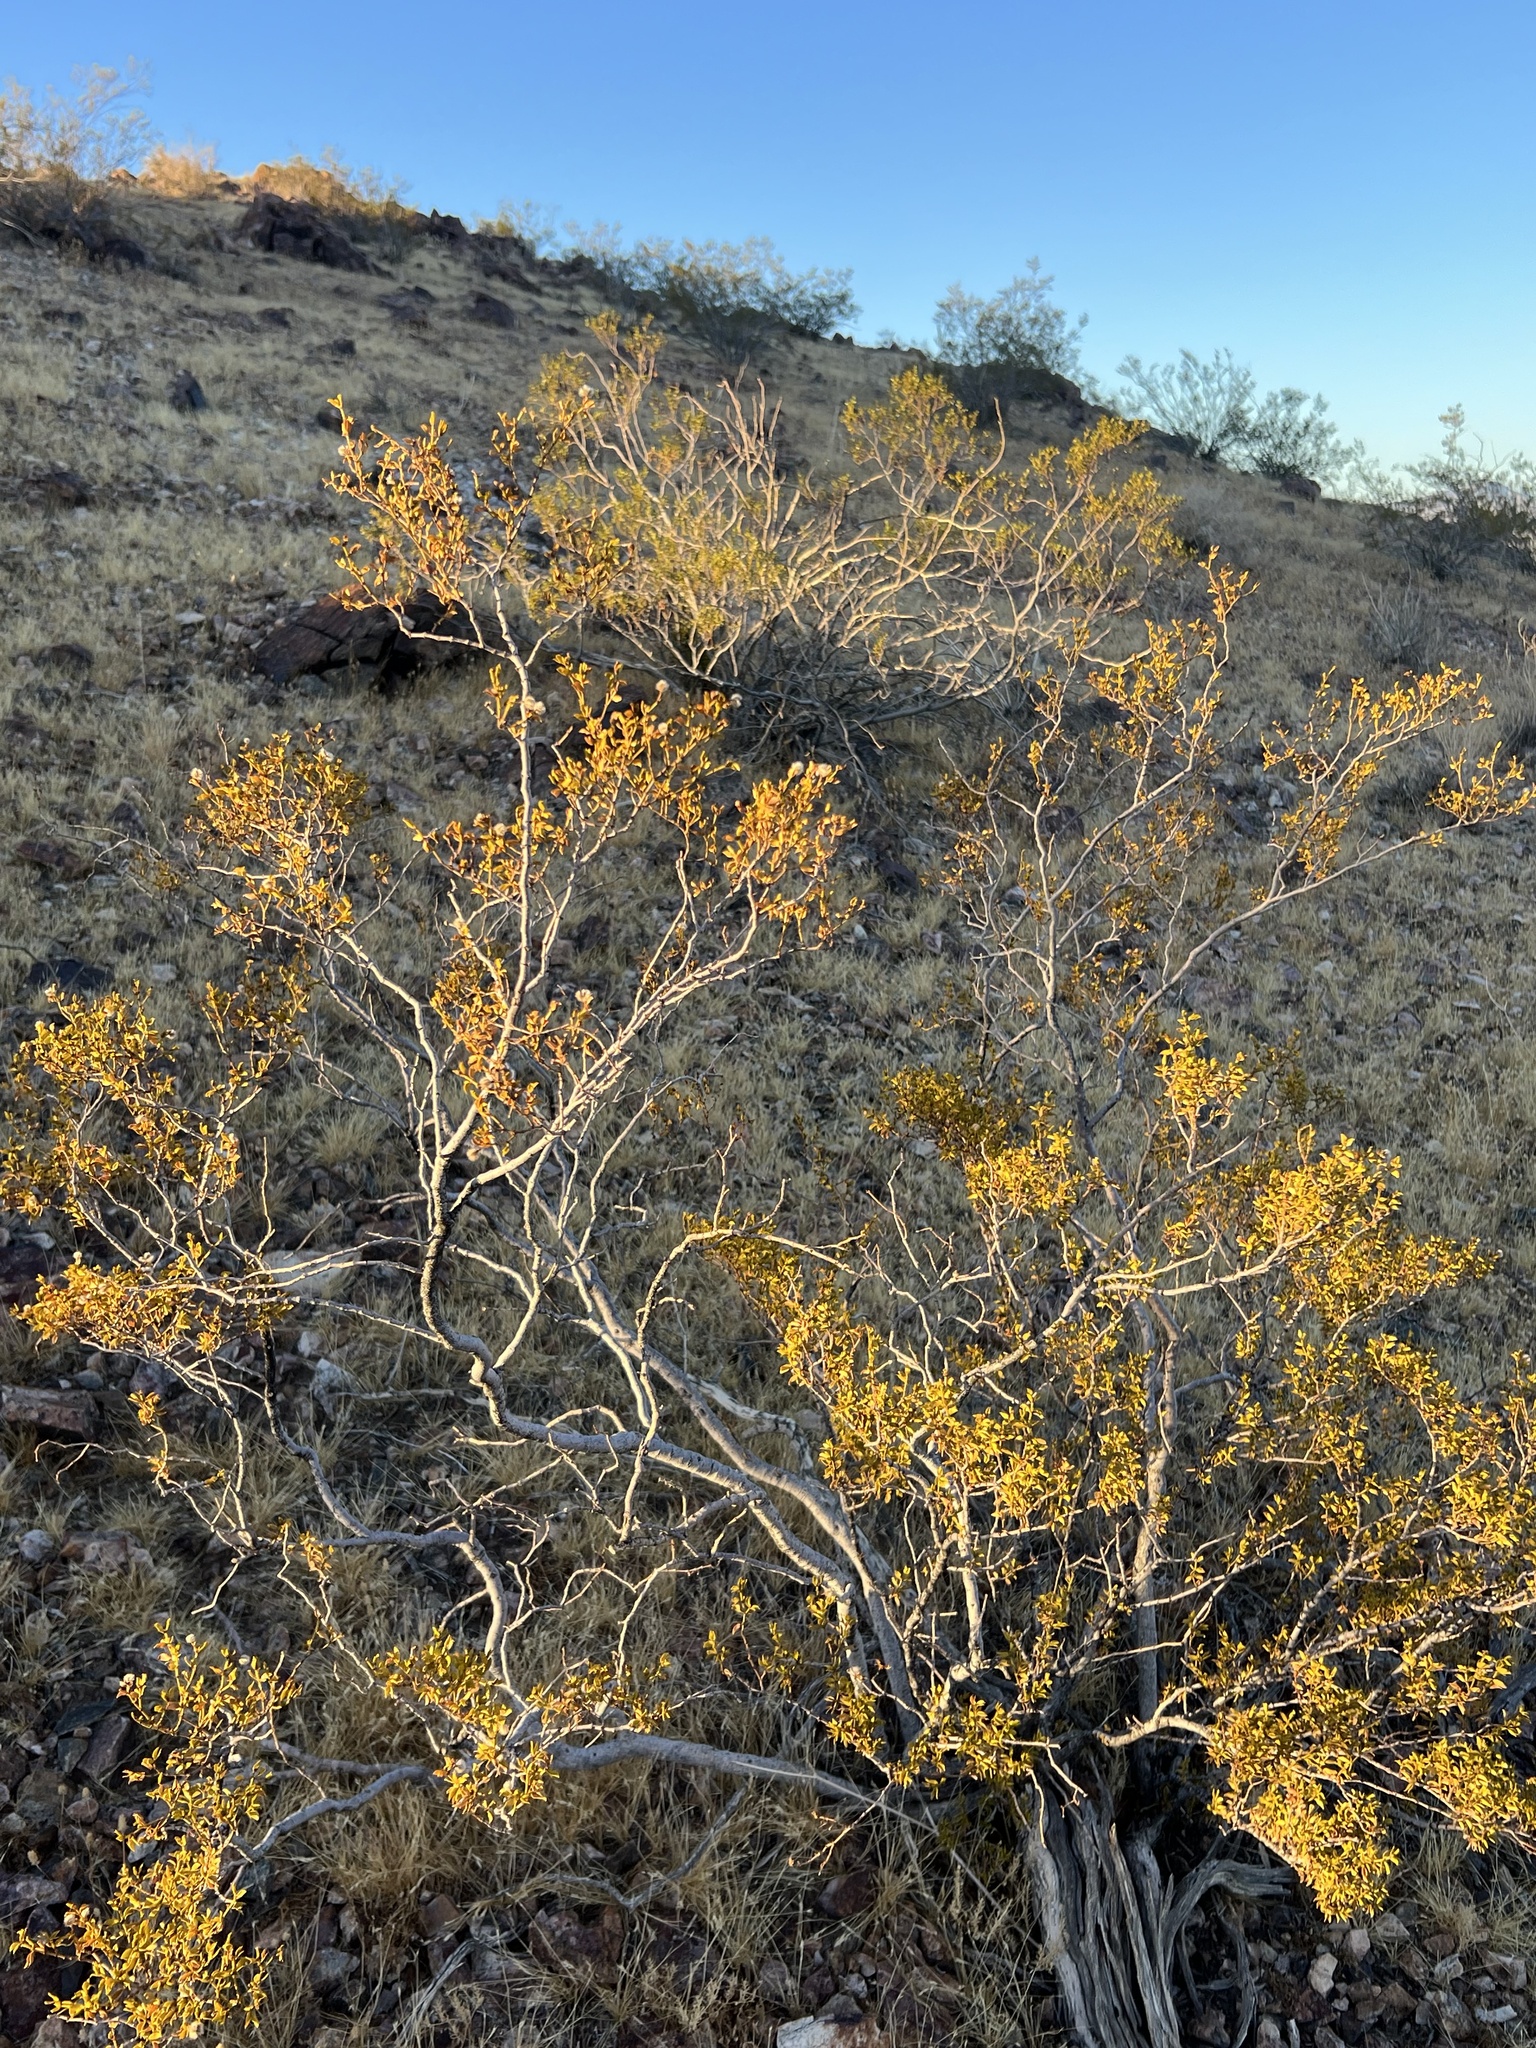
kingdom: Plantae
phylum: Tracheophyta
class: Magnoliopsida
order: Zygophyllales
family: Zygophyllaceae
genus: Larrea
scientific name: Larrea tridentata
